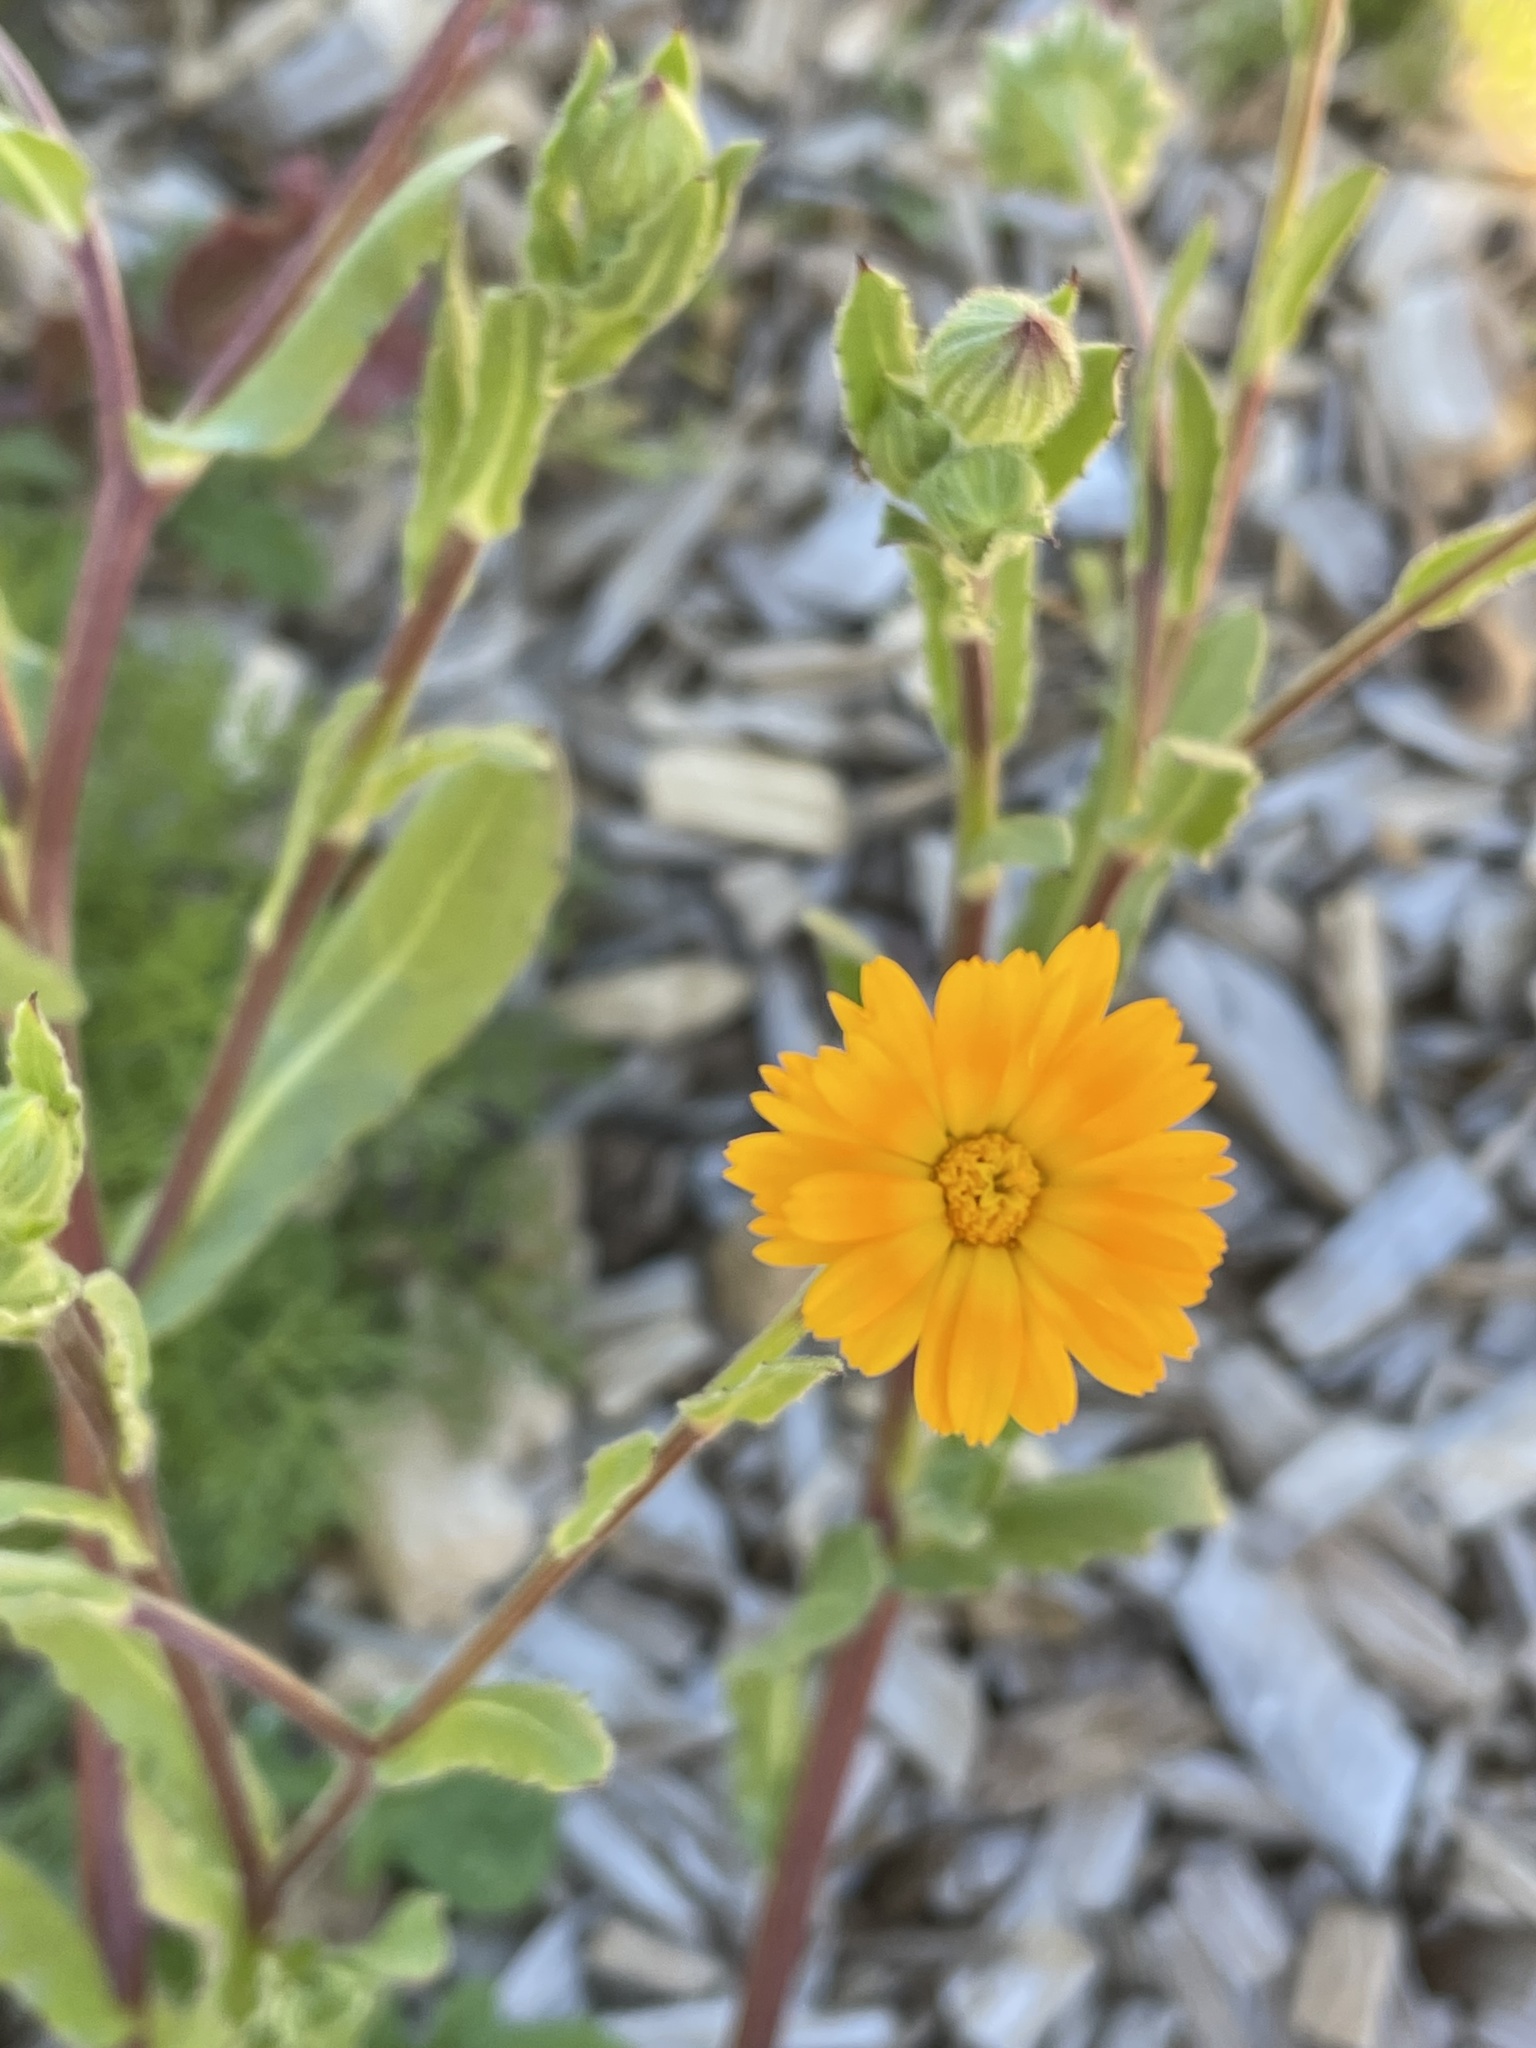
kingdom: Plantae
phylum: Tracheophyta
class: Magnoliopsida
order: Asterales
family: Asteraceae
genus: Calendula
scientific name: Calendula arvensis
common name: Field marigold
